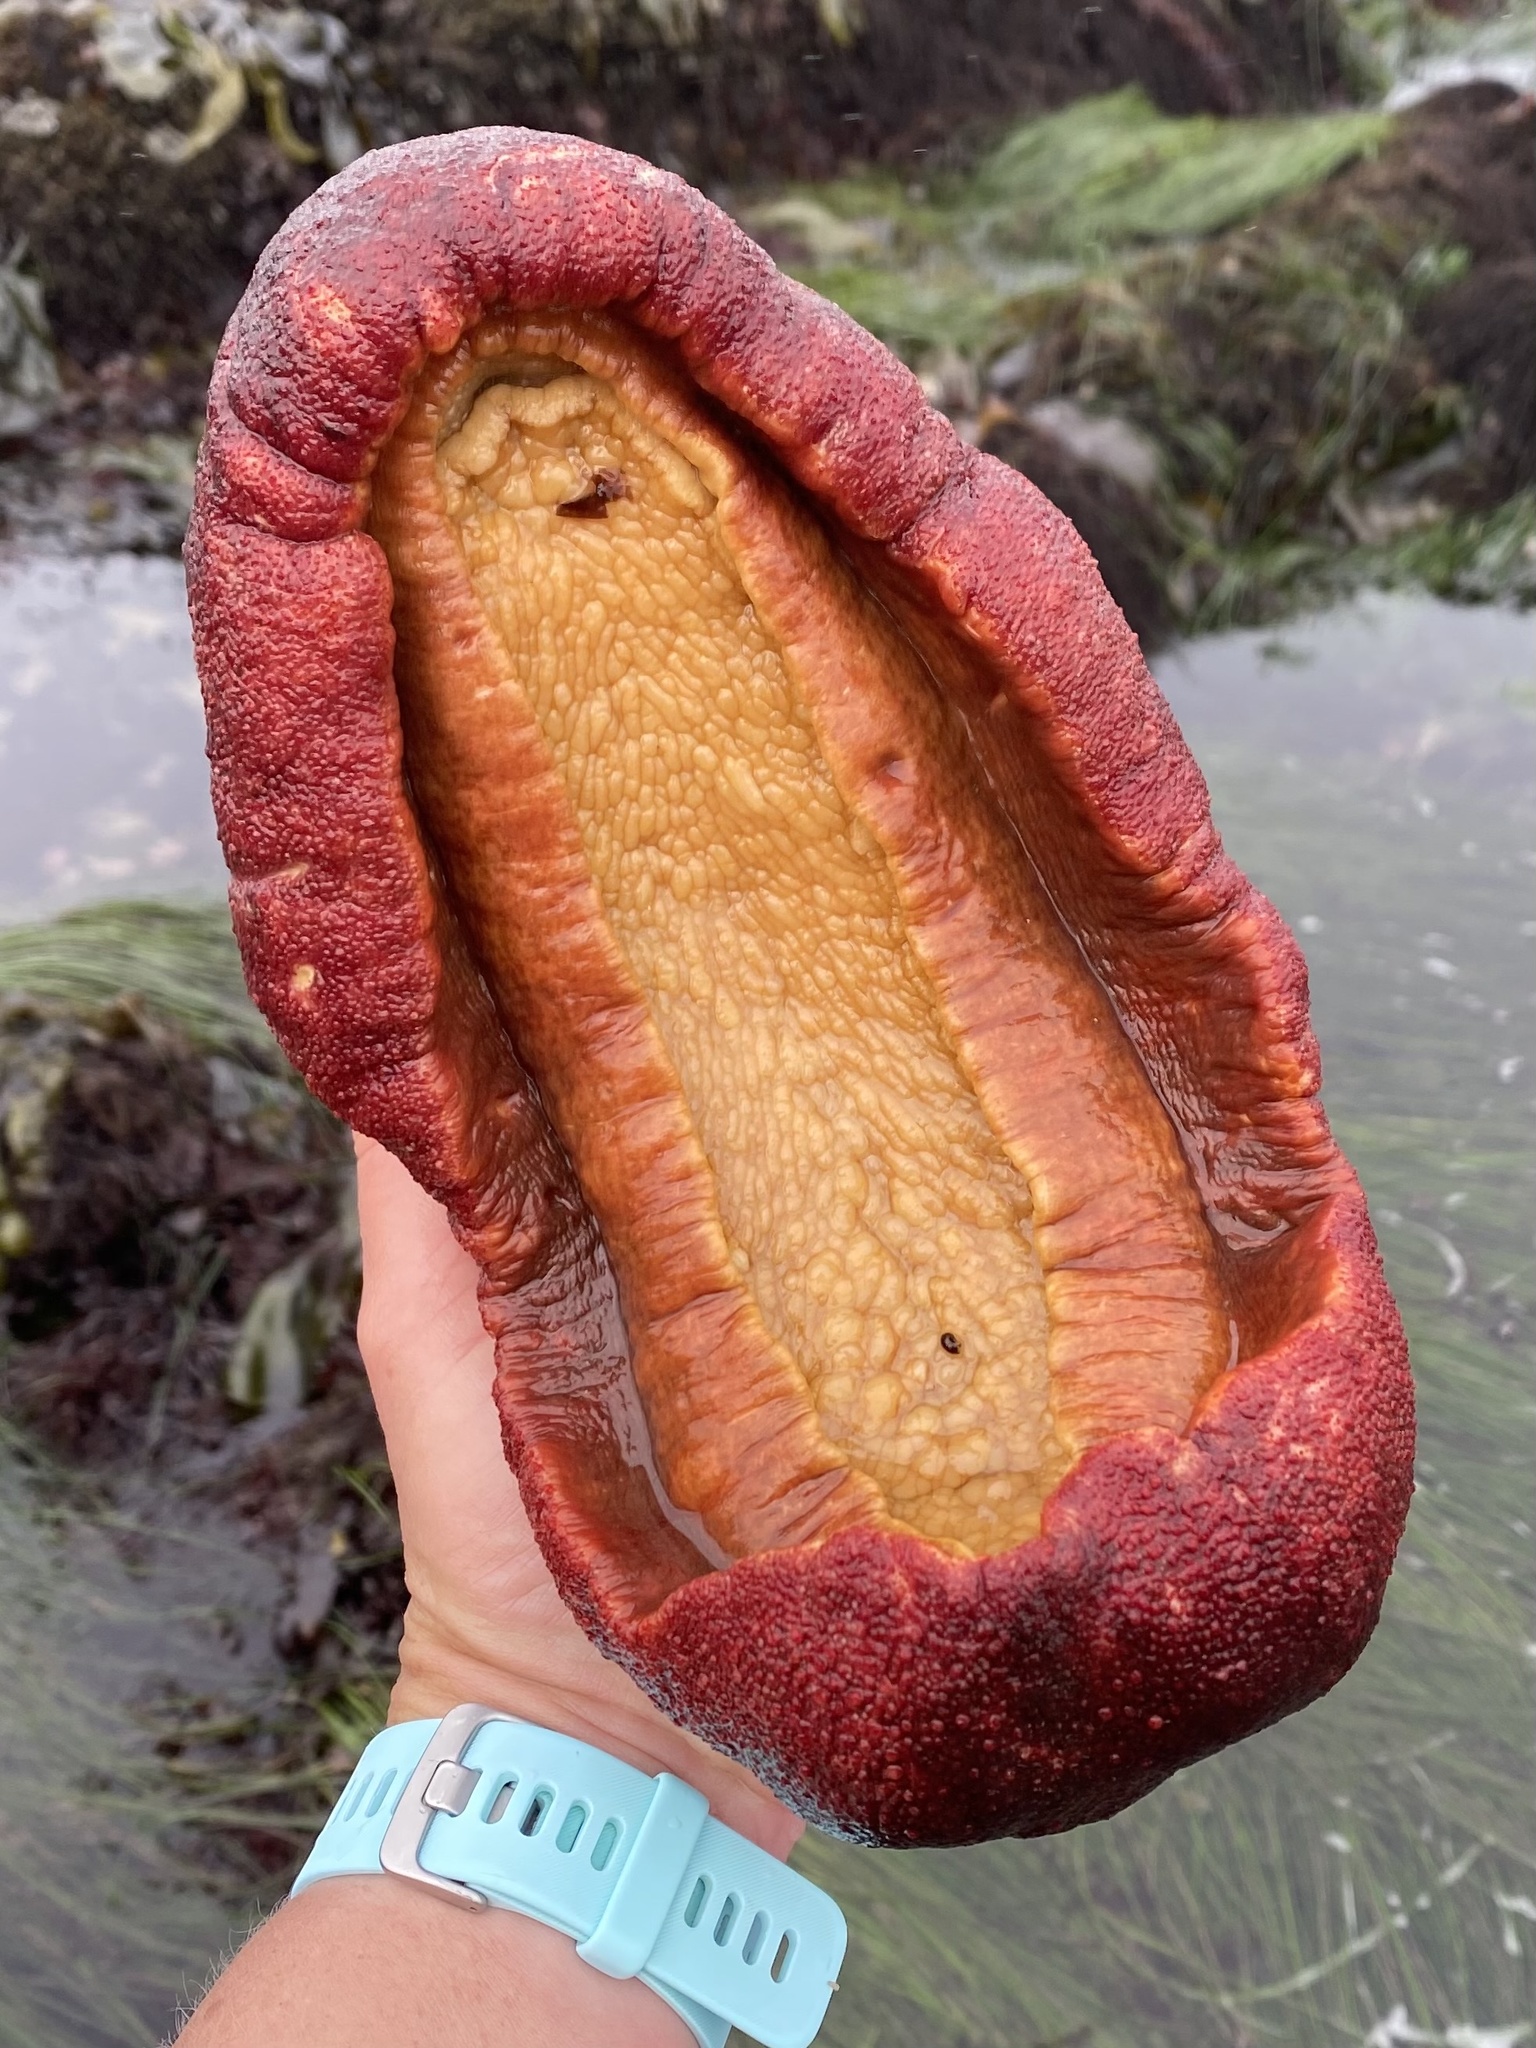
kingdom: Animalia
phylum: Mollusca
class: Polyplacophora
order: Chitonida
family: Acanthochitonidae
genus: Cryptochiton
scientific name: Cryptochiton stelleri
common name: Giant pacific chiton
